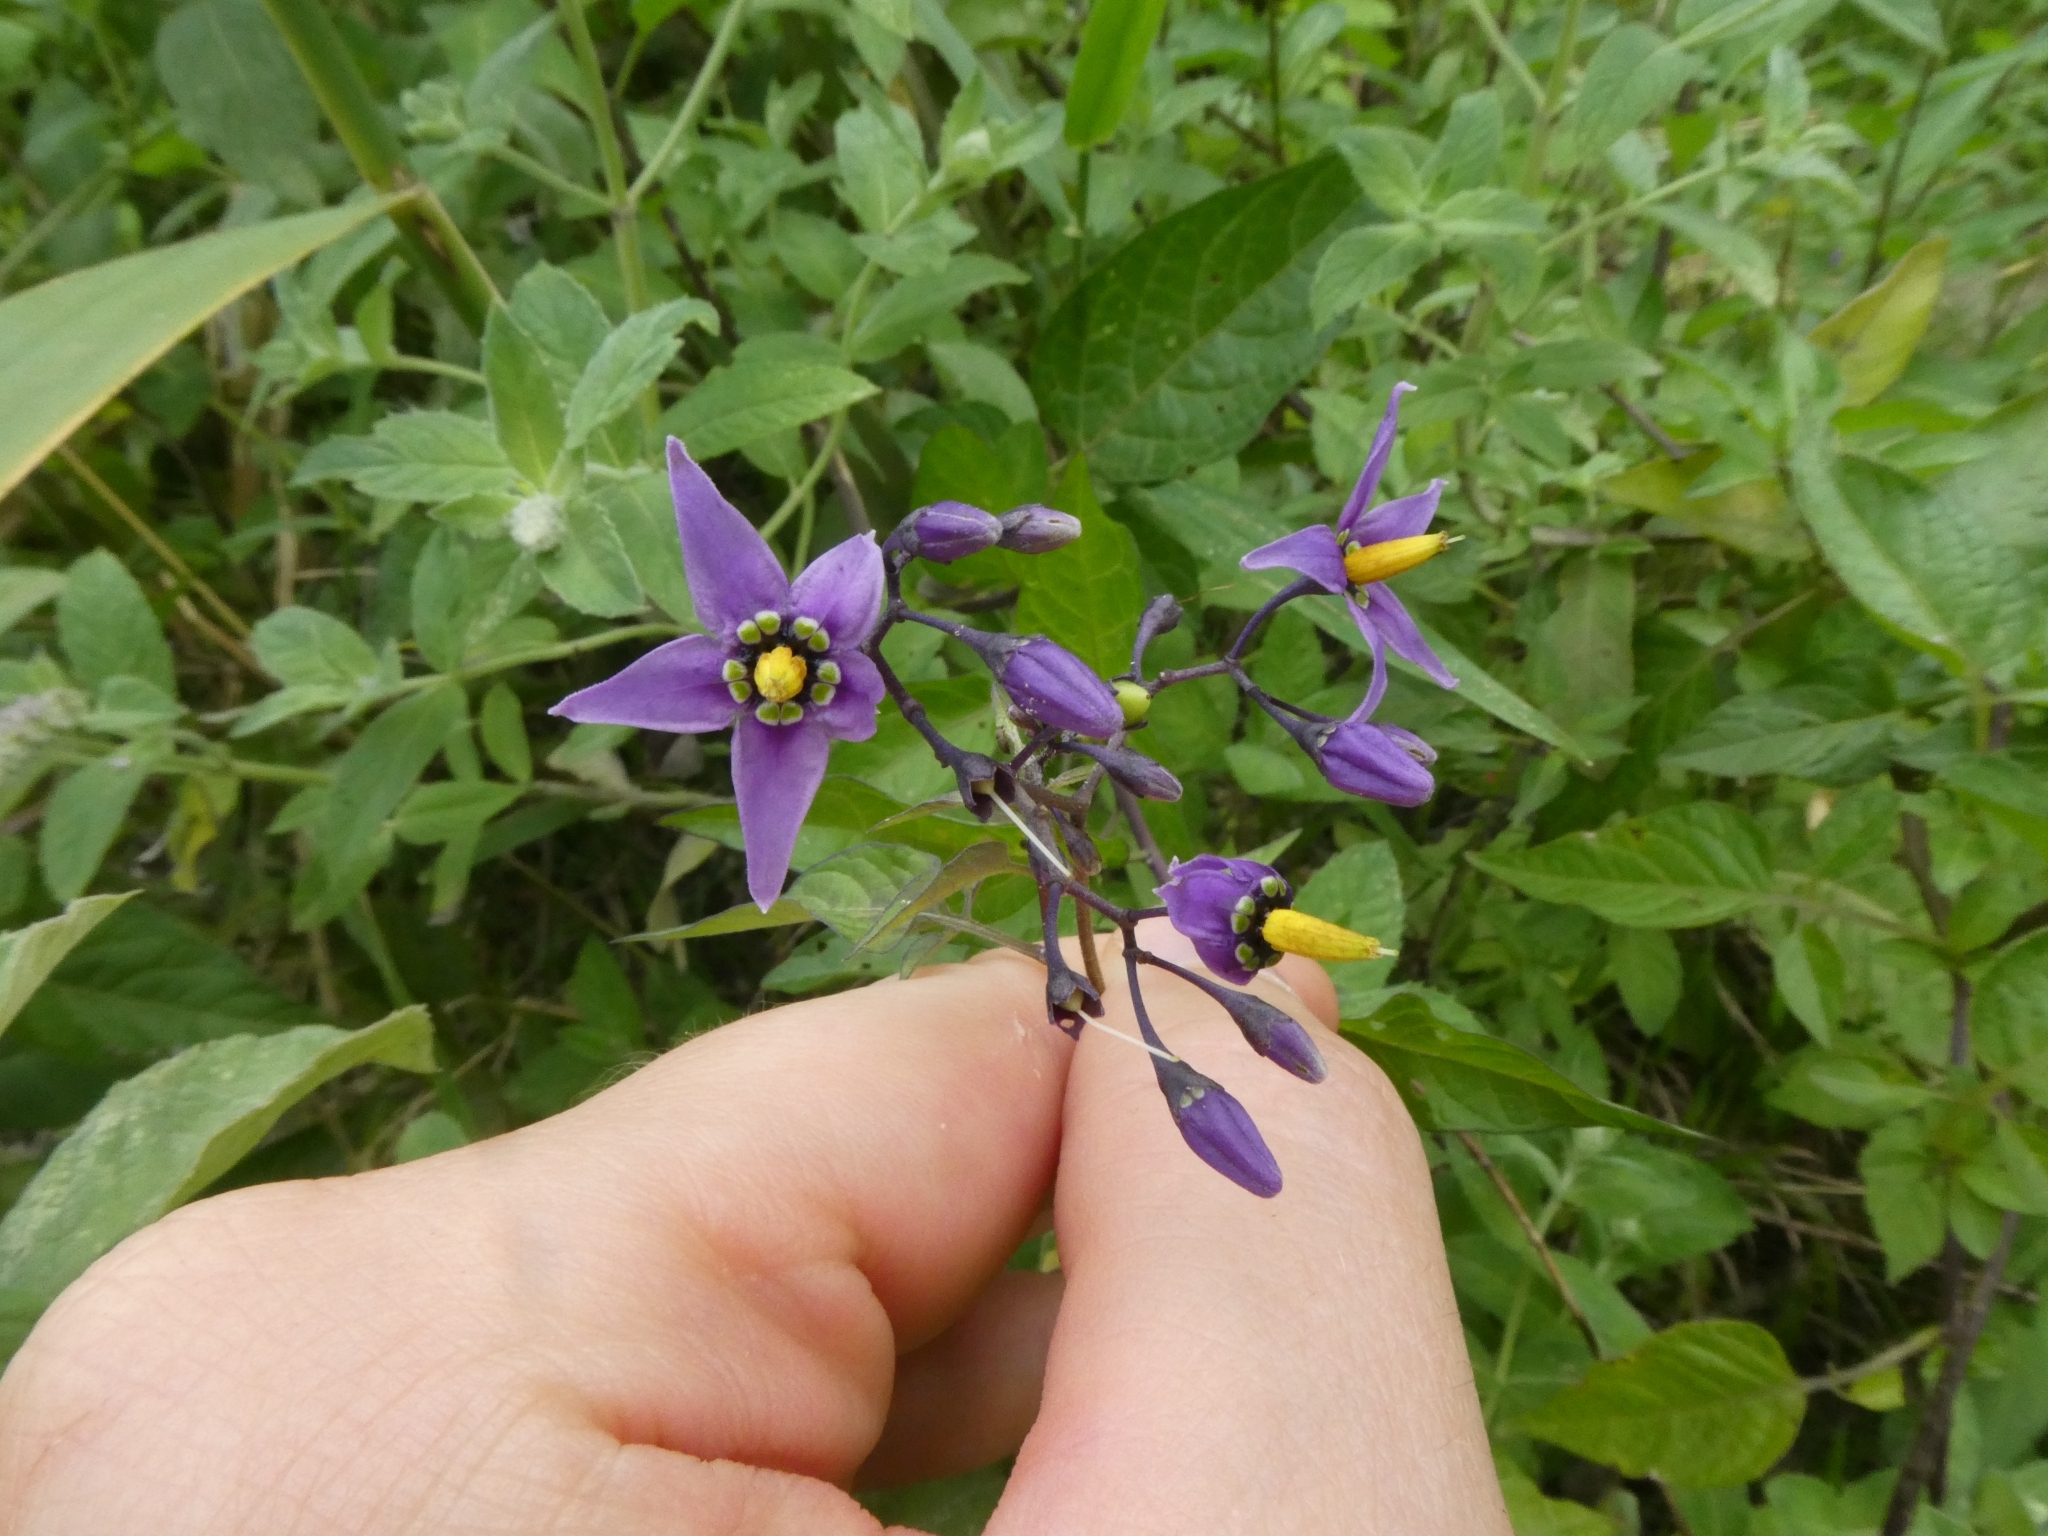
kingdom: Plantae
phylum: Tracheophyta
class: Magnoliopsida
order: Solanales
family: Solanaceae
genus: Solanum
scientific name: Solanum dulcamara
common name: Climbing nightshade
